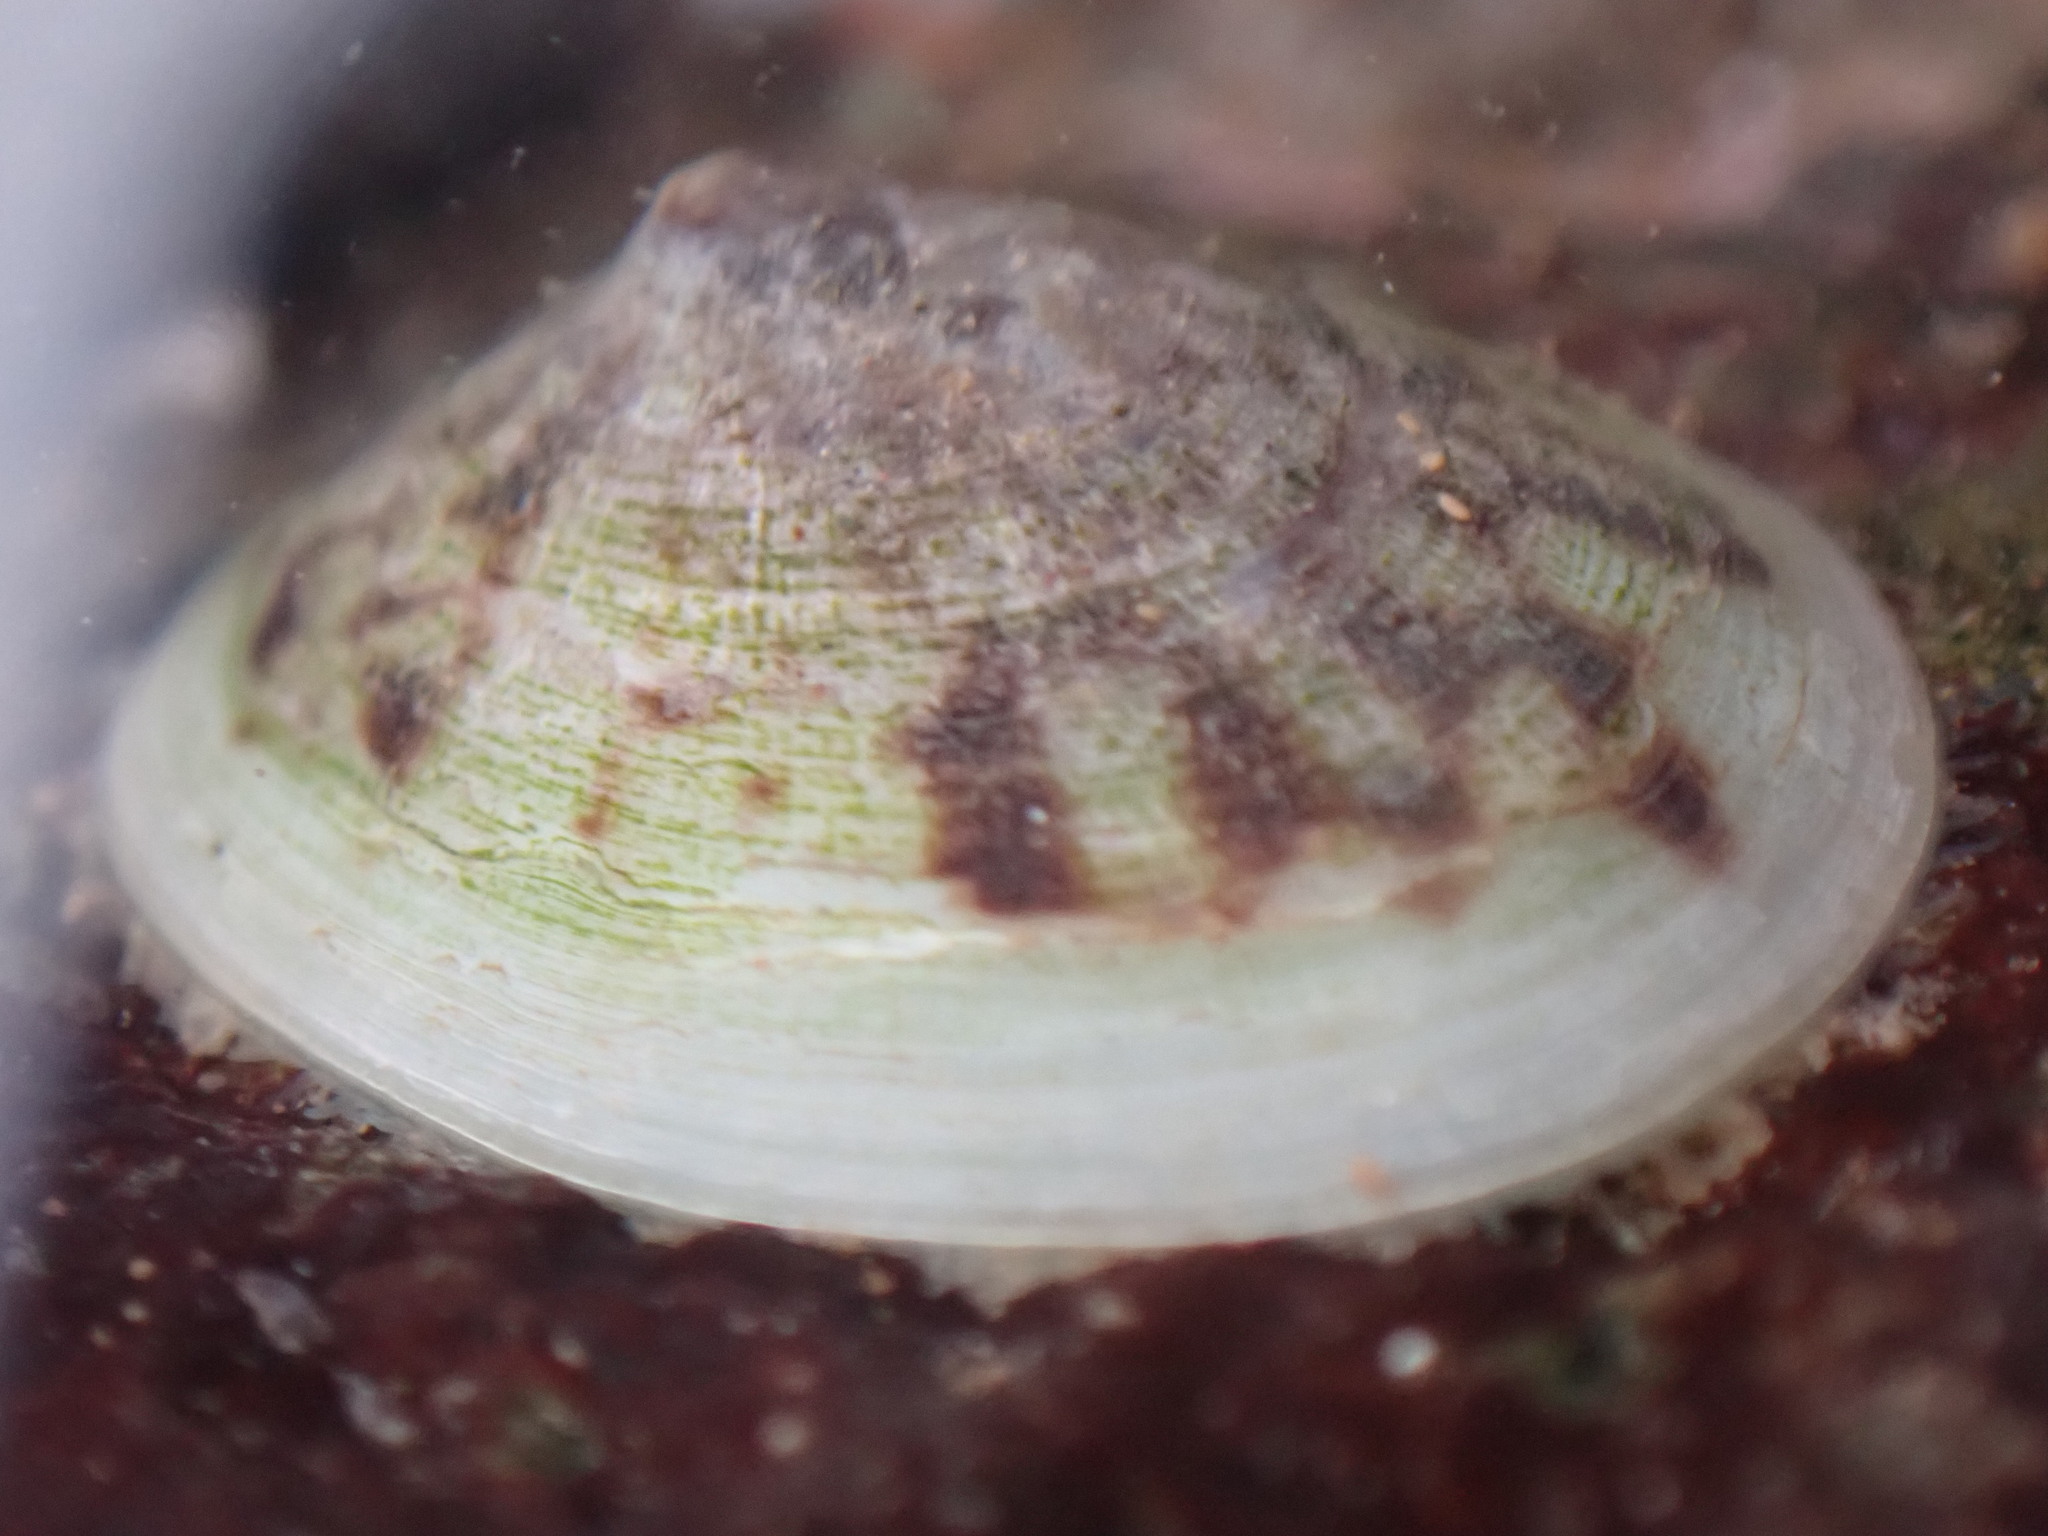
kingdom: Animalia
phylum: Mollusca
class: Gastropoda
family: Lottiidae
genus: Testudinalia
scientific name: Testudinalia testudinalis
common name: Common tortoiseshell limpet
